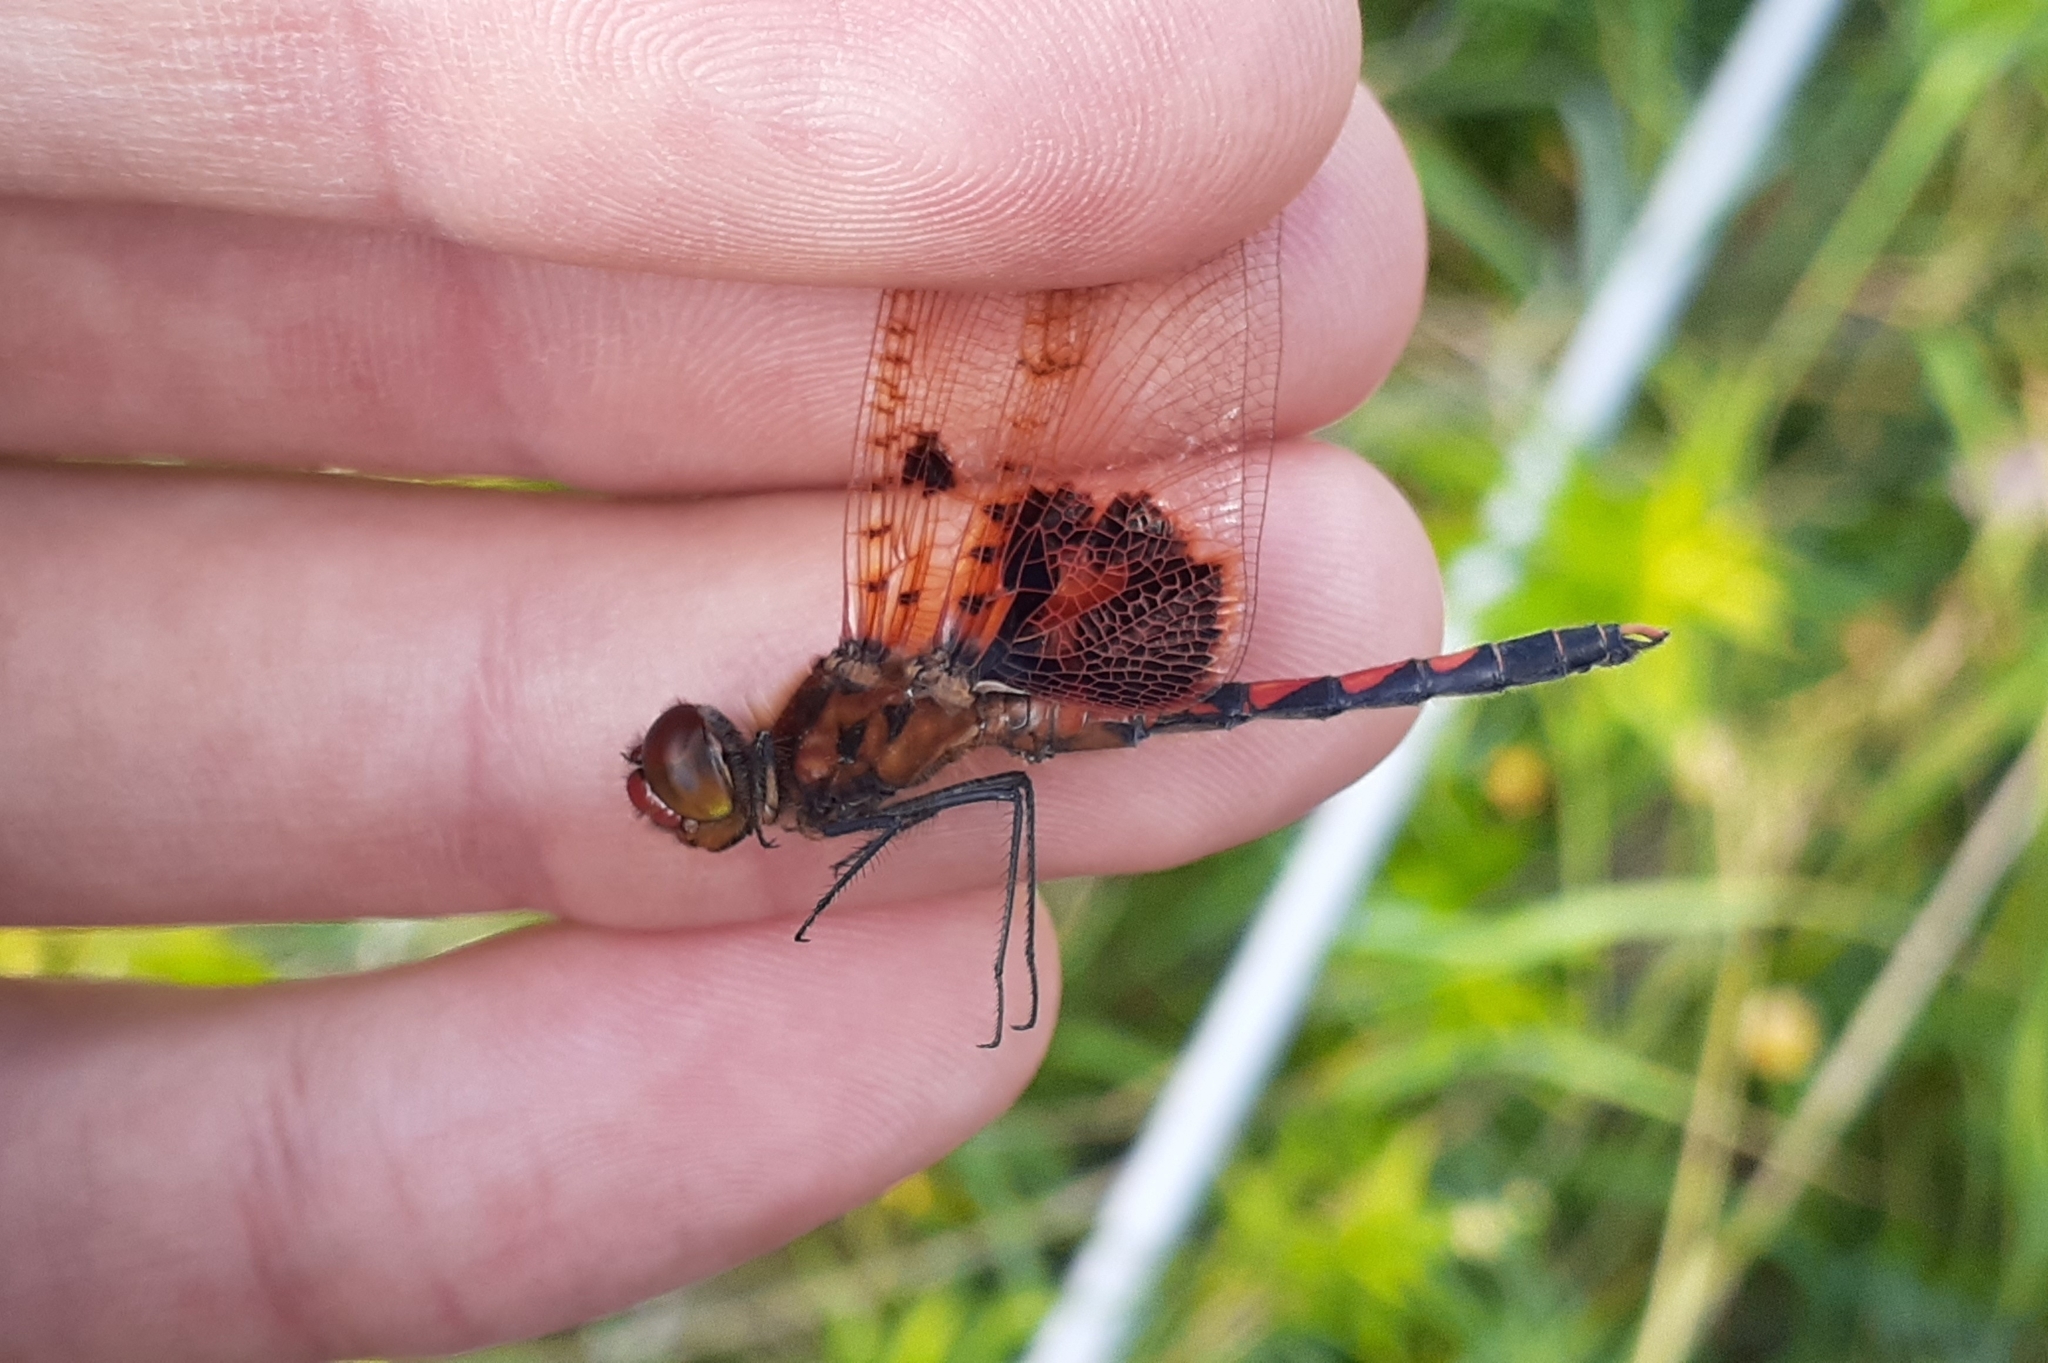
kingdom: Animalia
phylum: Arthropoda
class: Insecta
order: Odonata
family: Libellulidae
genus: Celithemis
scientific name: Celithemis elisa
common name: Calico pennant
